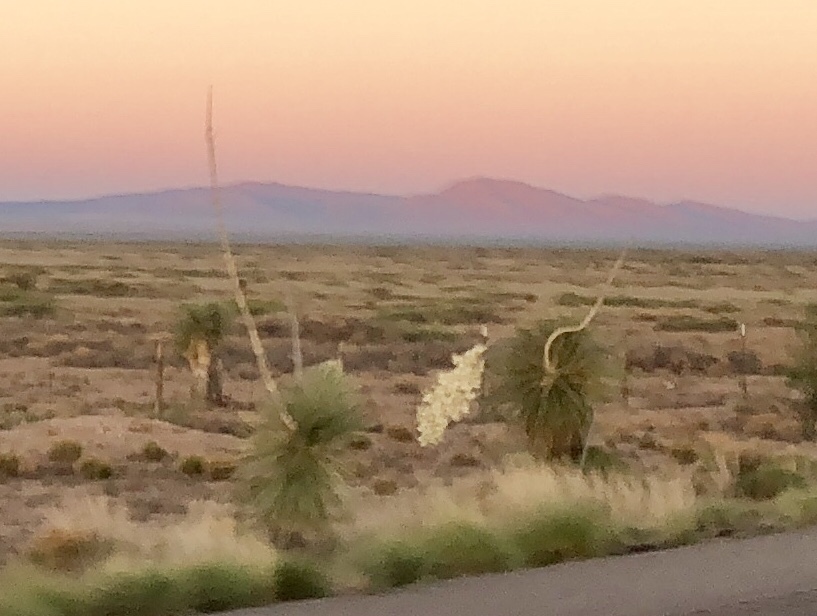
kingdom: Plantae
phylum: Tracheophyta
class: Liliopsida
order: Asparagales
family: Asparagaceae
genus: Yucca
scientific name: Yucca elata
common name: Palmella
